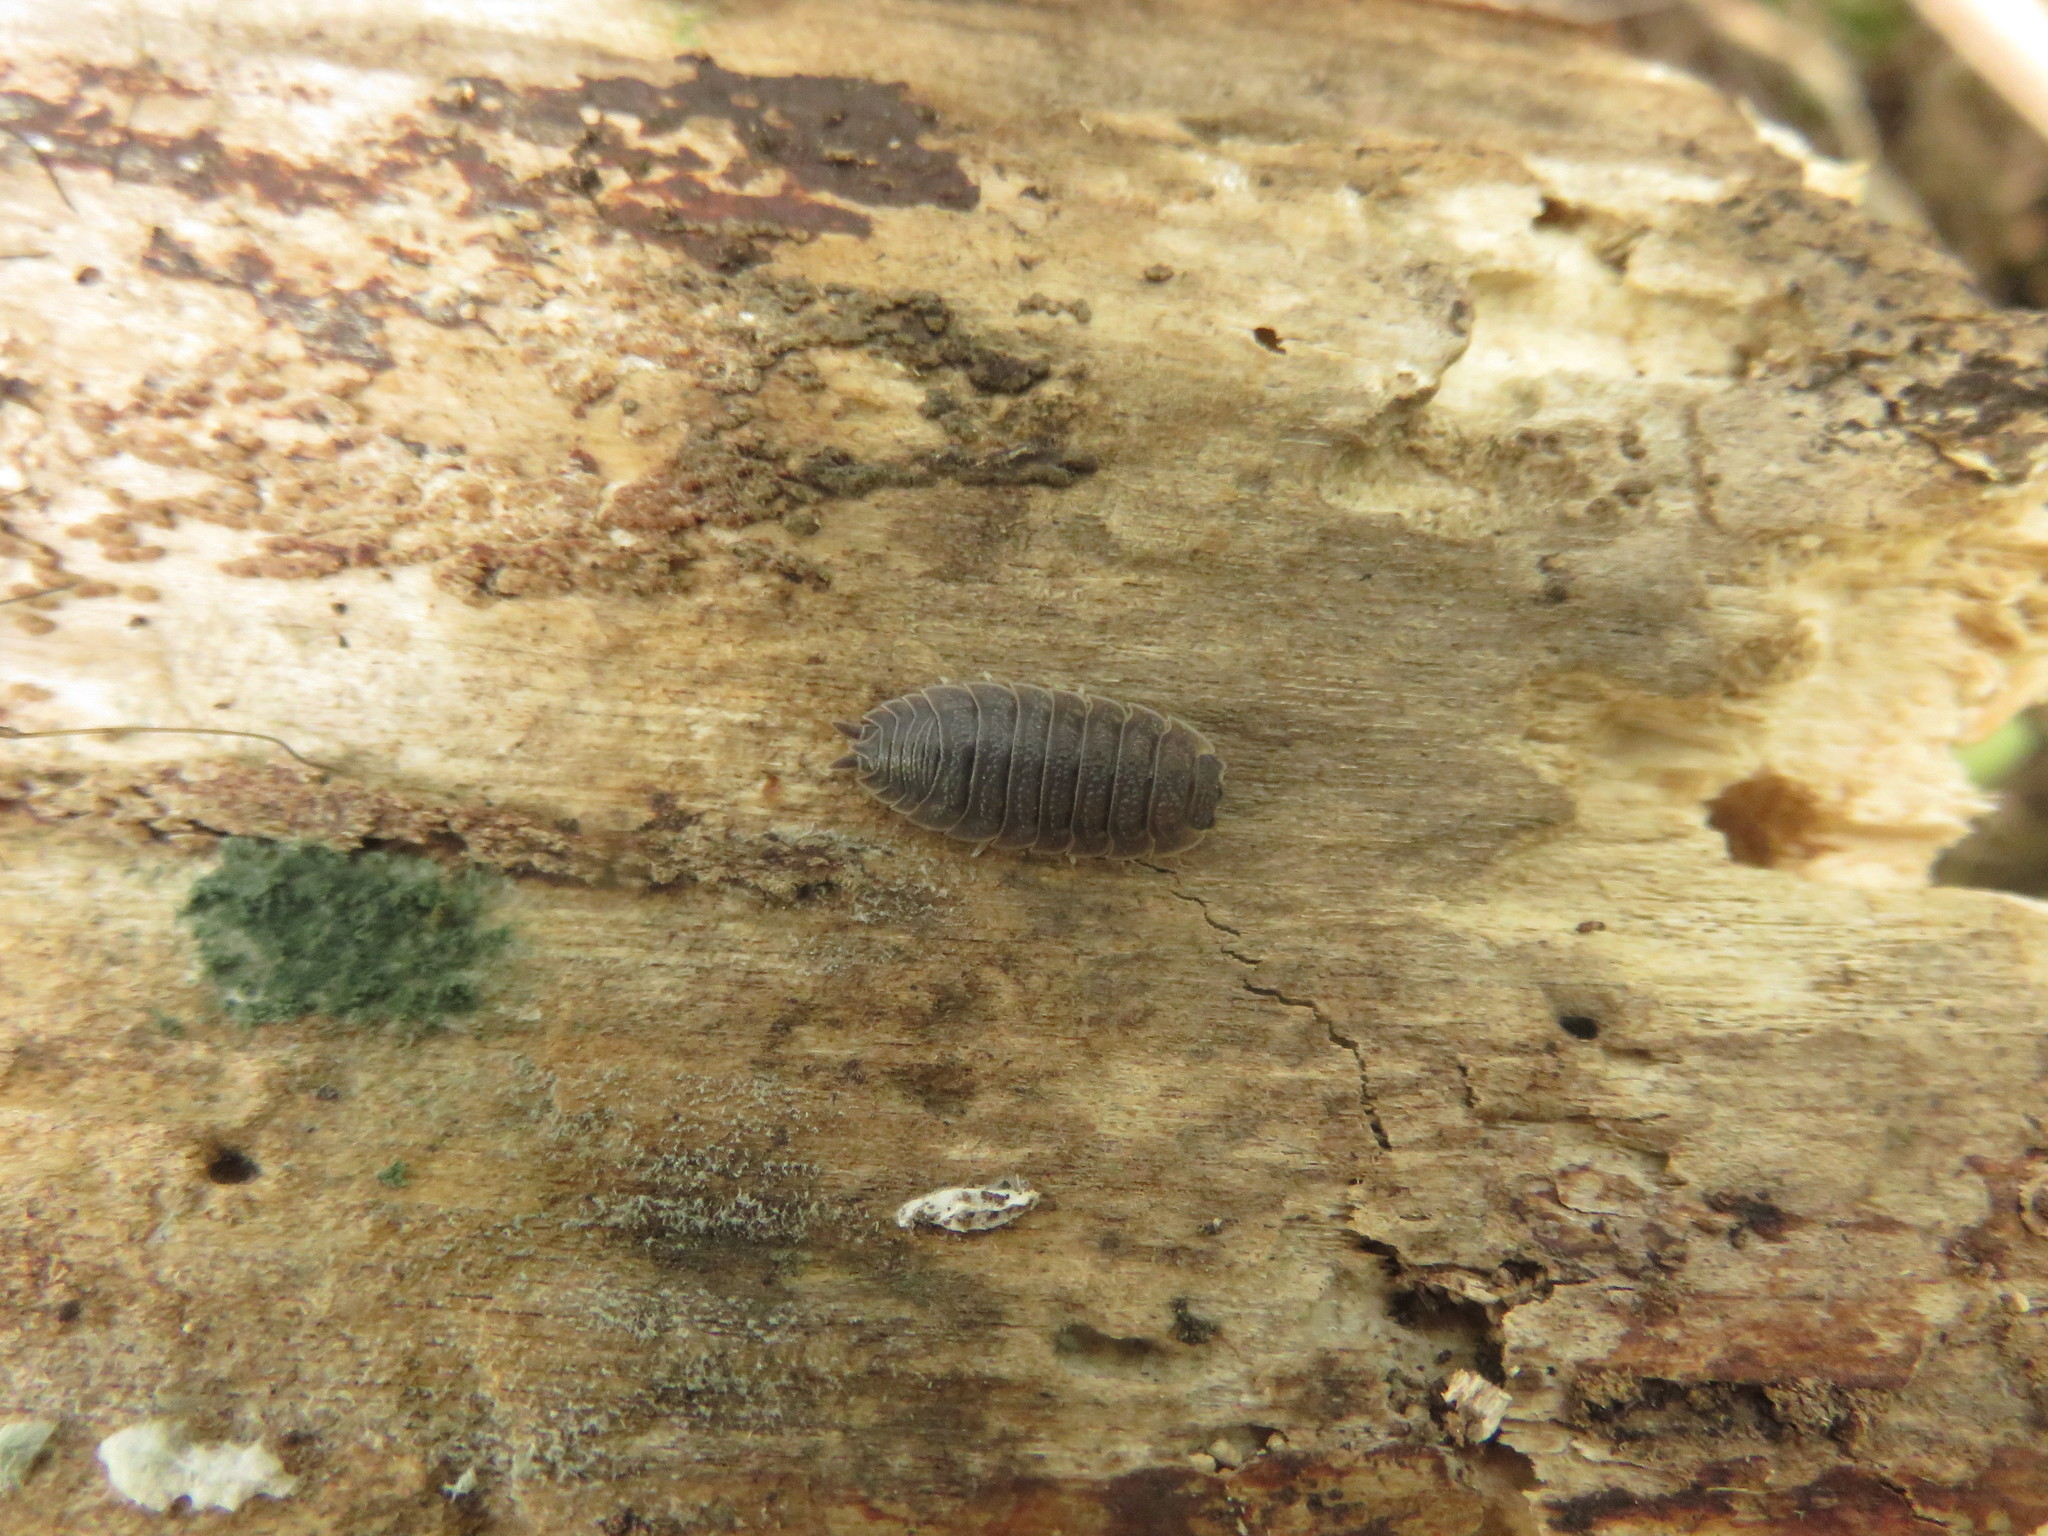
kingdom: Animalia
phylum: Arthropoda
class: Malacostraca
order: Isopoda
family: Porcellionidae
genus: Porcellio
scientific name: Porcellio scaber
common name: Common rough woodlouse
